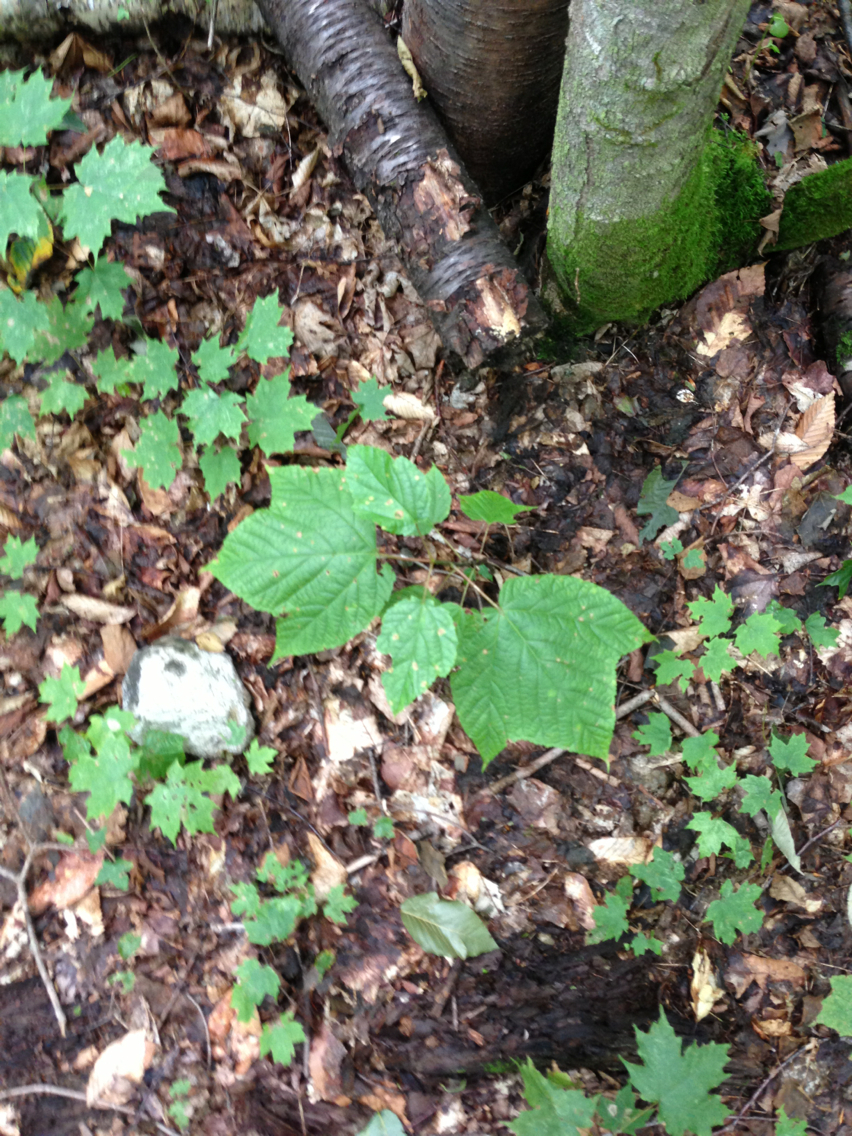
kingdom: Plantae
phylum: Tracheophyta
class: Magnoliopsida
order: Sapindales
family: Sapindaceae
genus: Acer
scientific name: Acer pensylvanicum
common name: Moosewood
